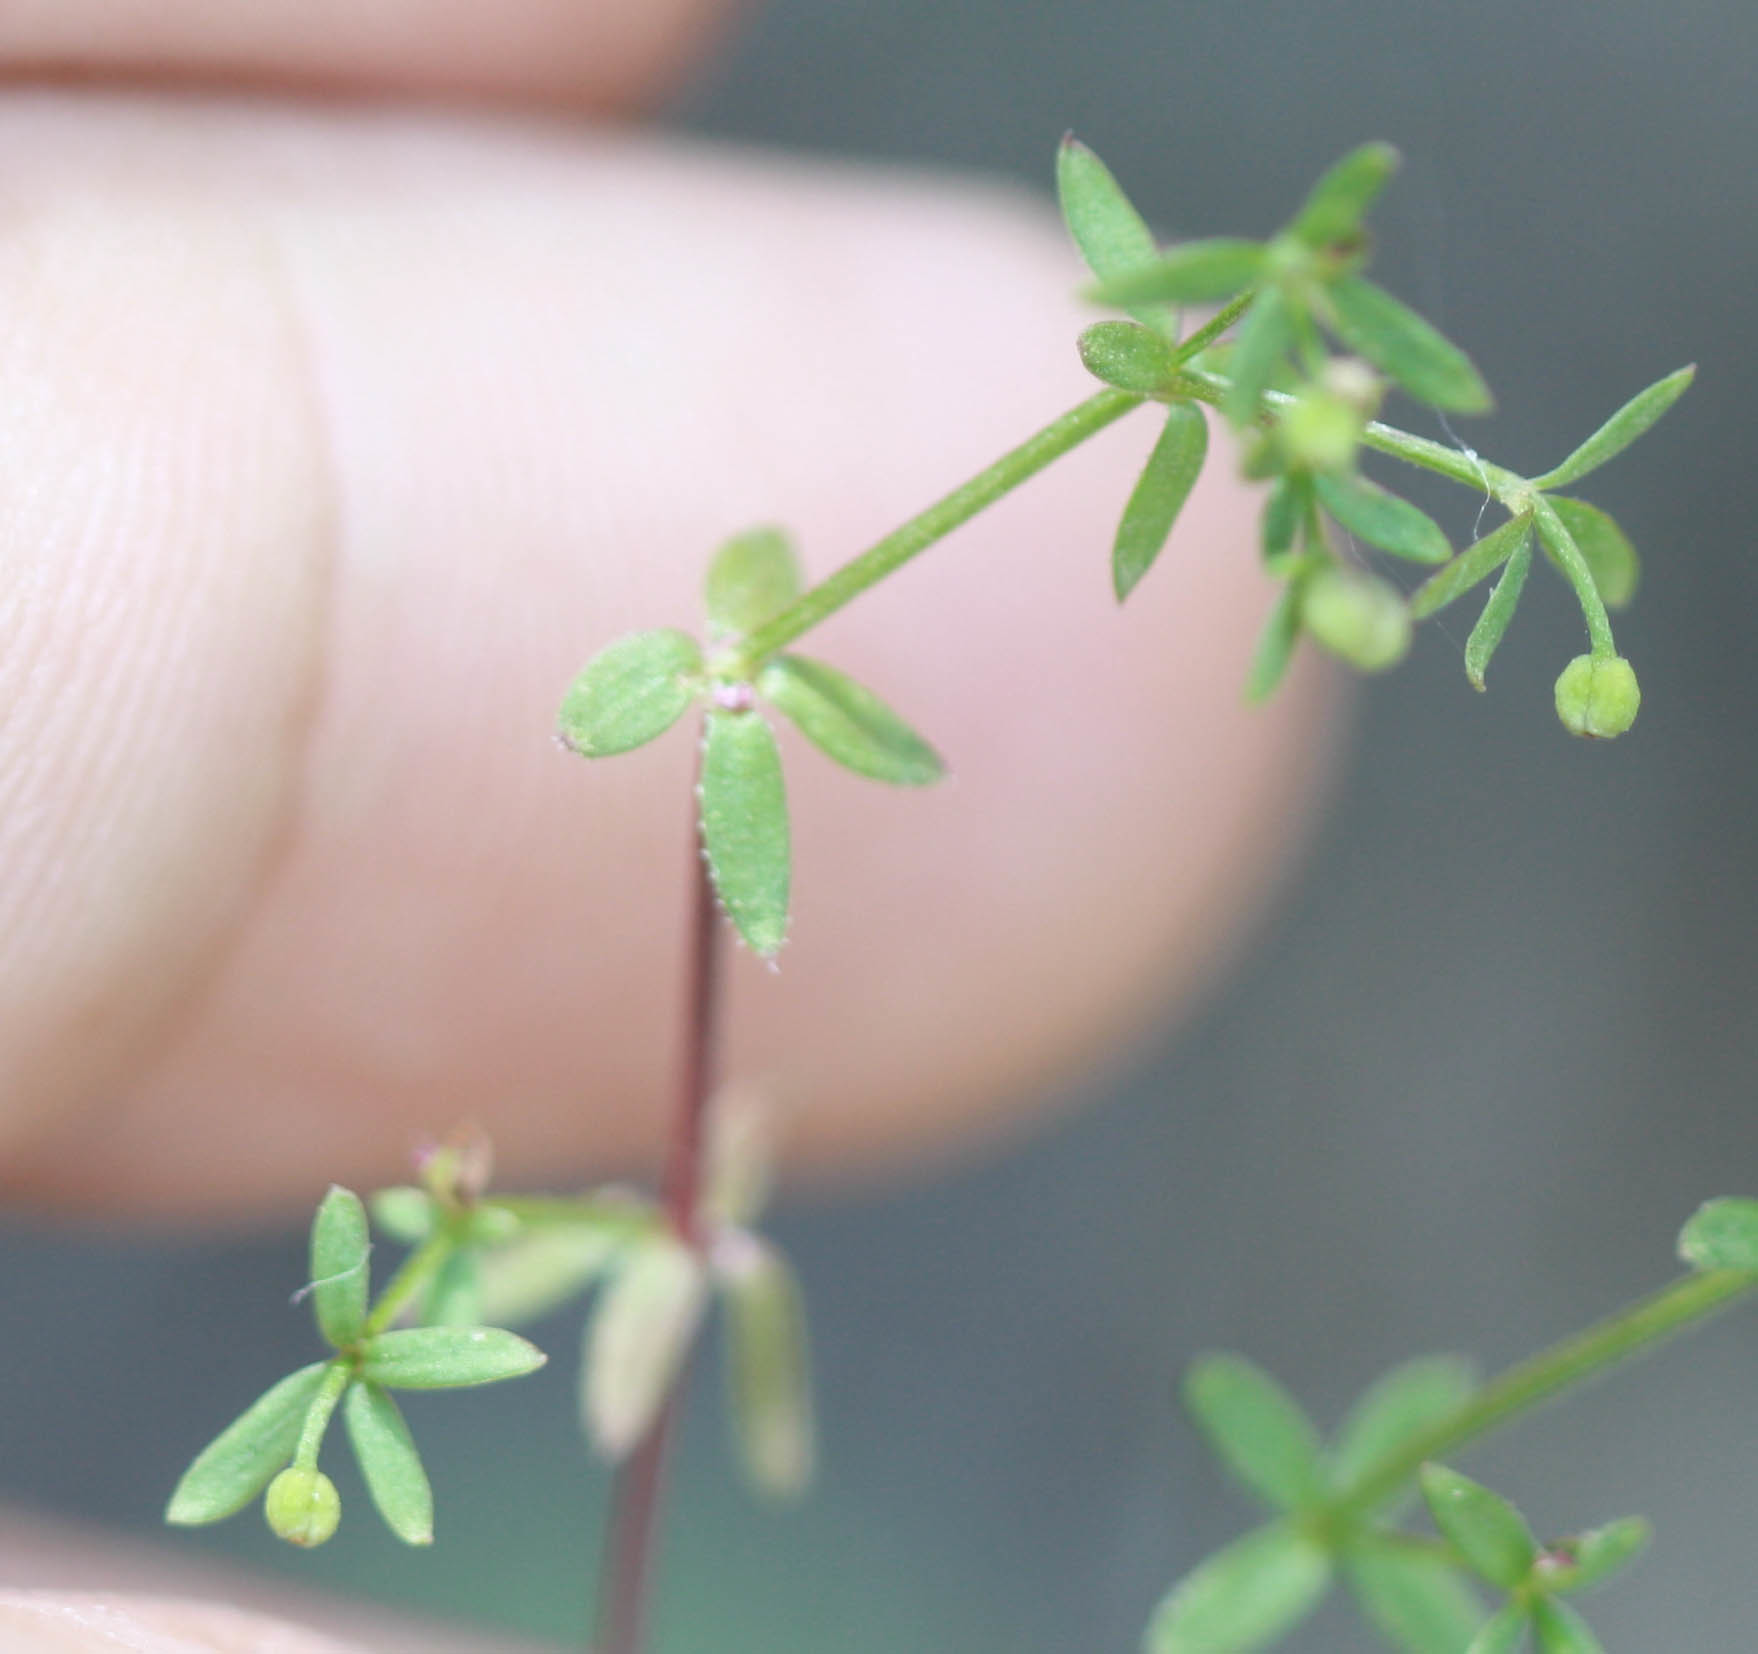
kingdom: Plantae
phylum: Tracheophyta
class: Magnoliopsida
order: Gentianales
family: Rubiaceae
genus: Galium
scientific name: Galium porrigens
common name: Climbing bedstraw
